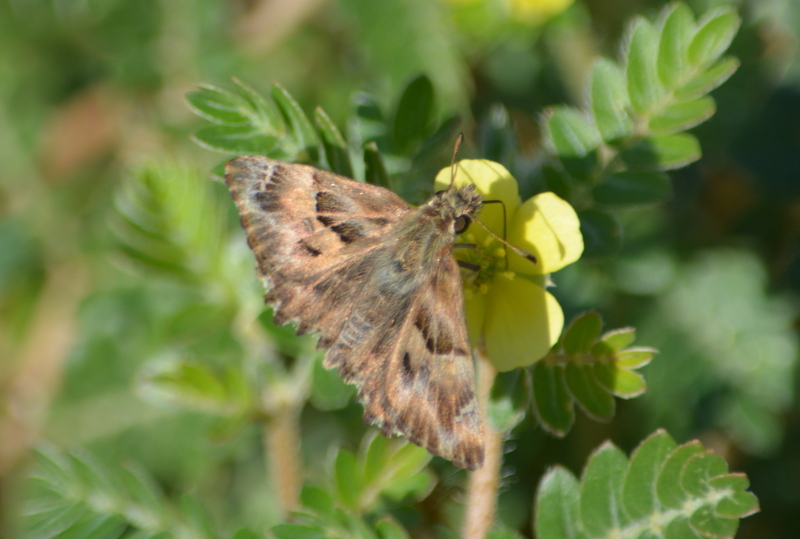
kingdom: Animalia
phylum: Arthropoda
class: Insecta
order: Lepidoptera
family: Hesperiidae
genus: Carcharodus
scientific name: Carcharodus alceae
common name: Mallow skipper
